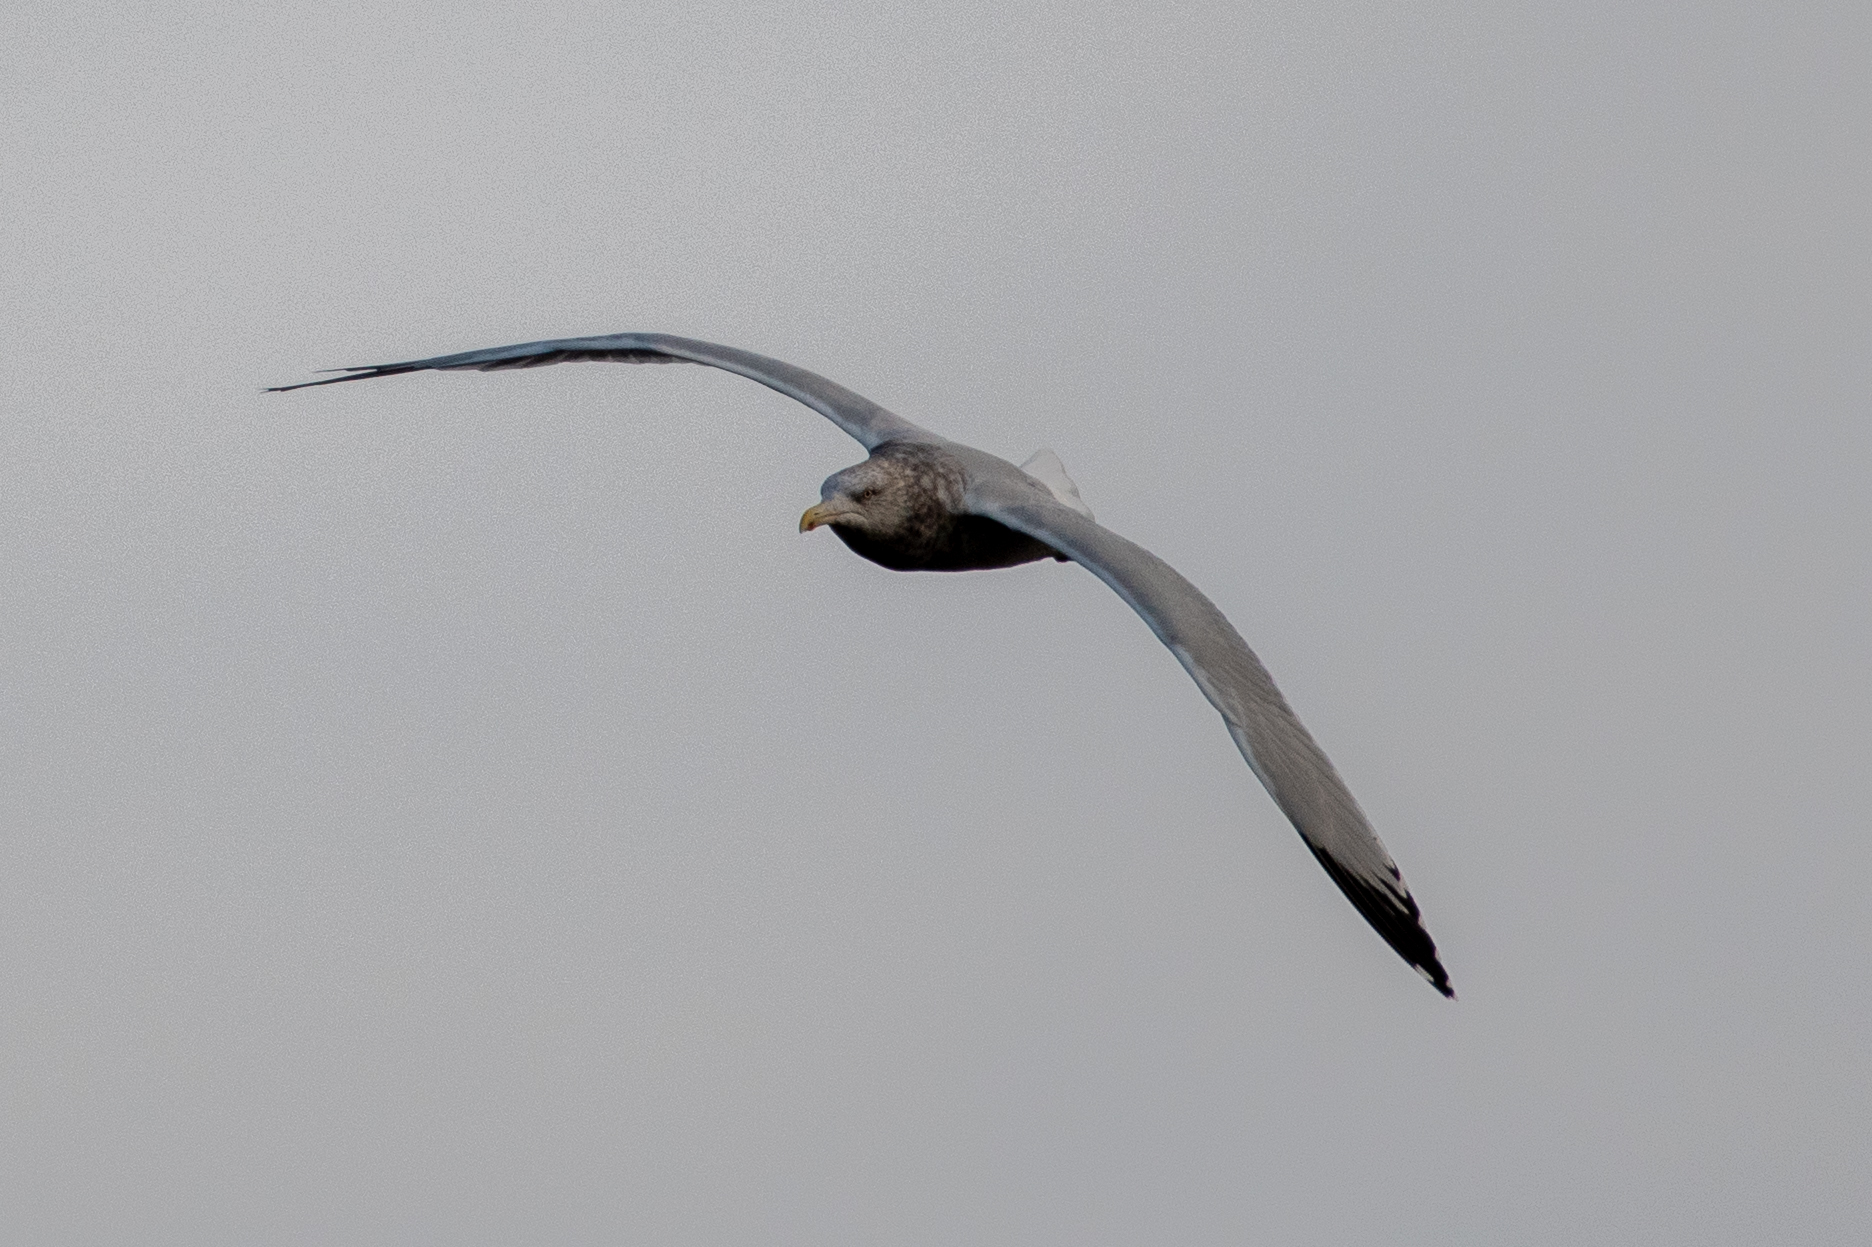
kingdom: Animalia
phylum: Chordata
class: Aves
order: Charadriiformes
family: Laridae
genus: Larus
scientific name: Larus argentatus
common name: Herring gull
